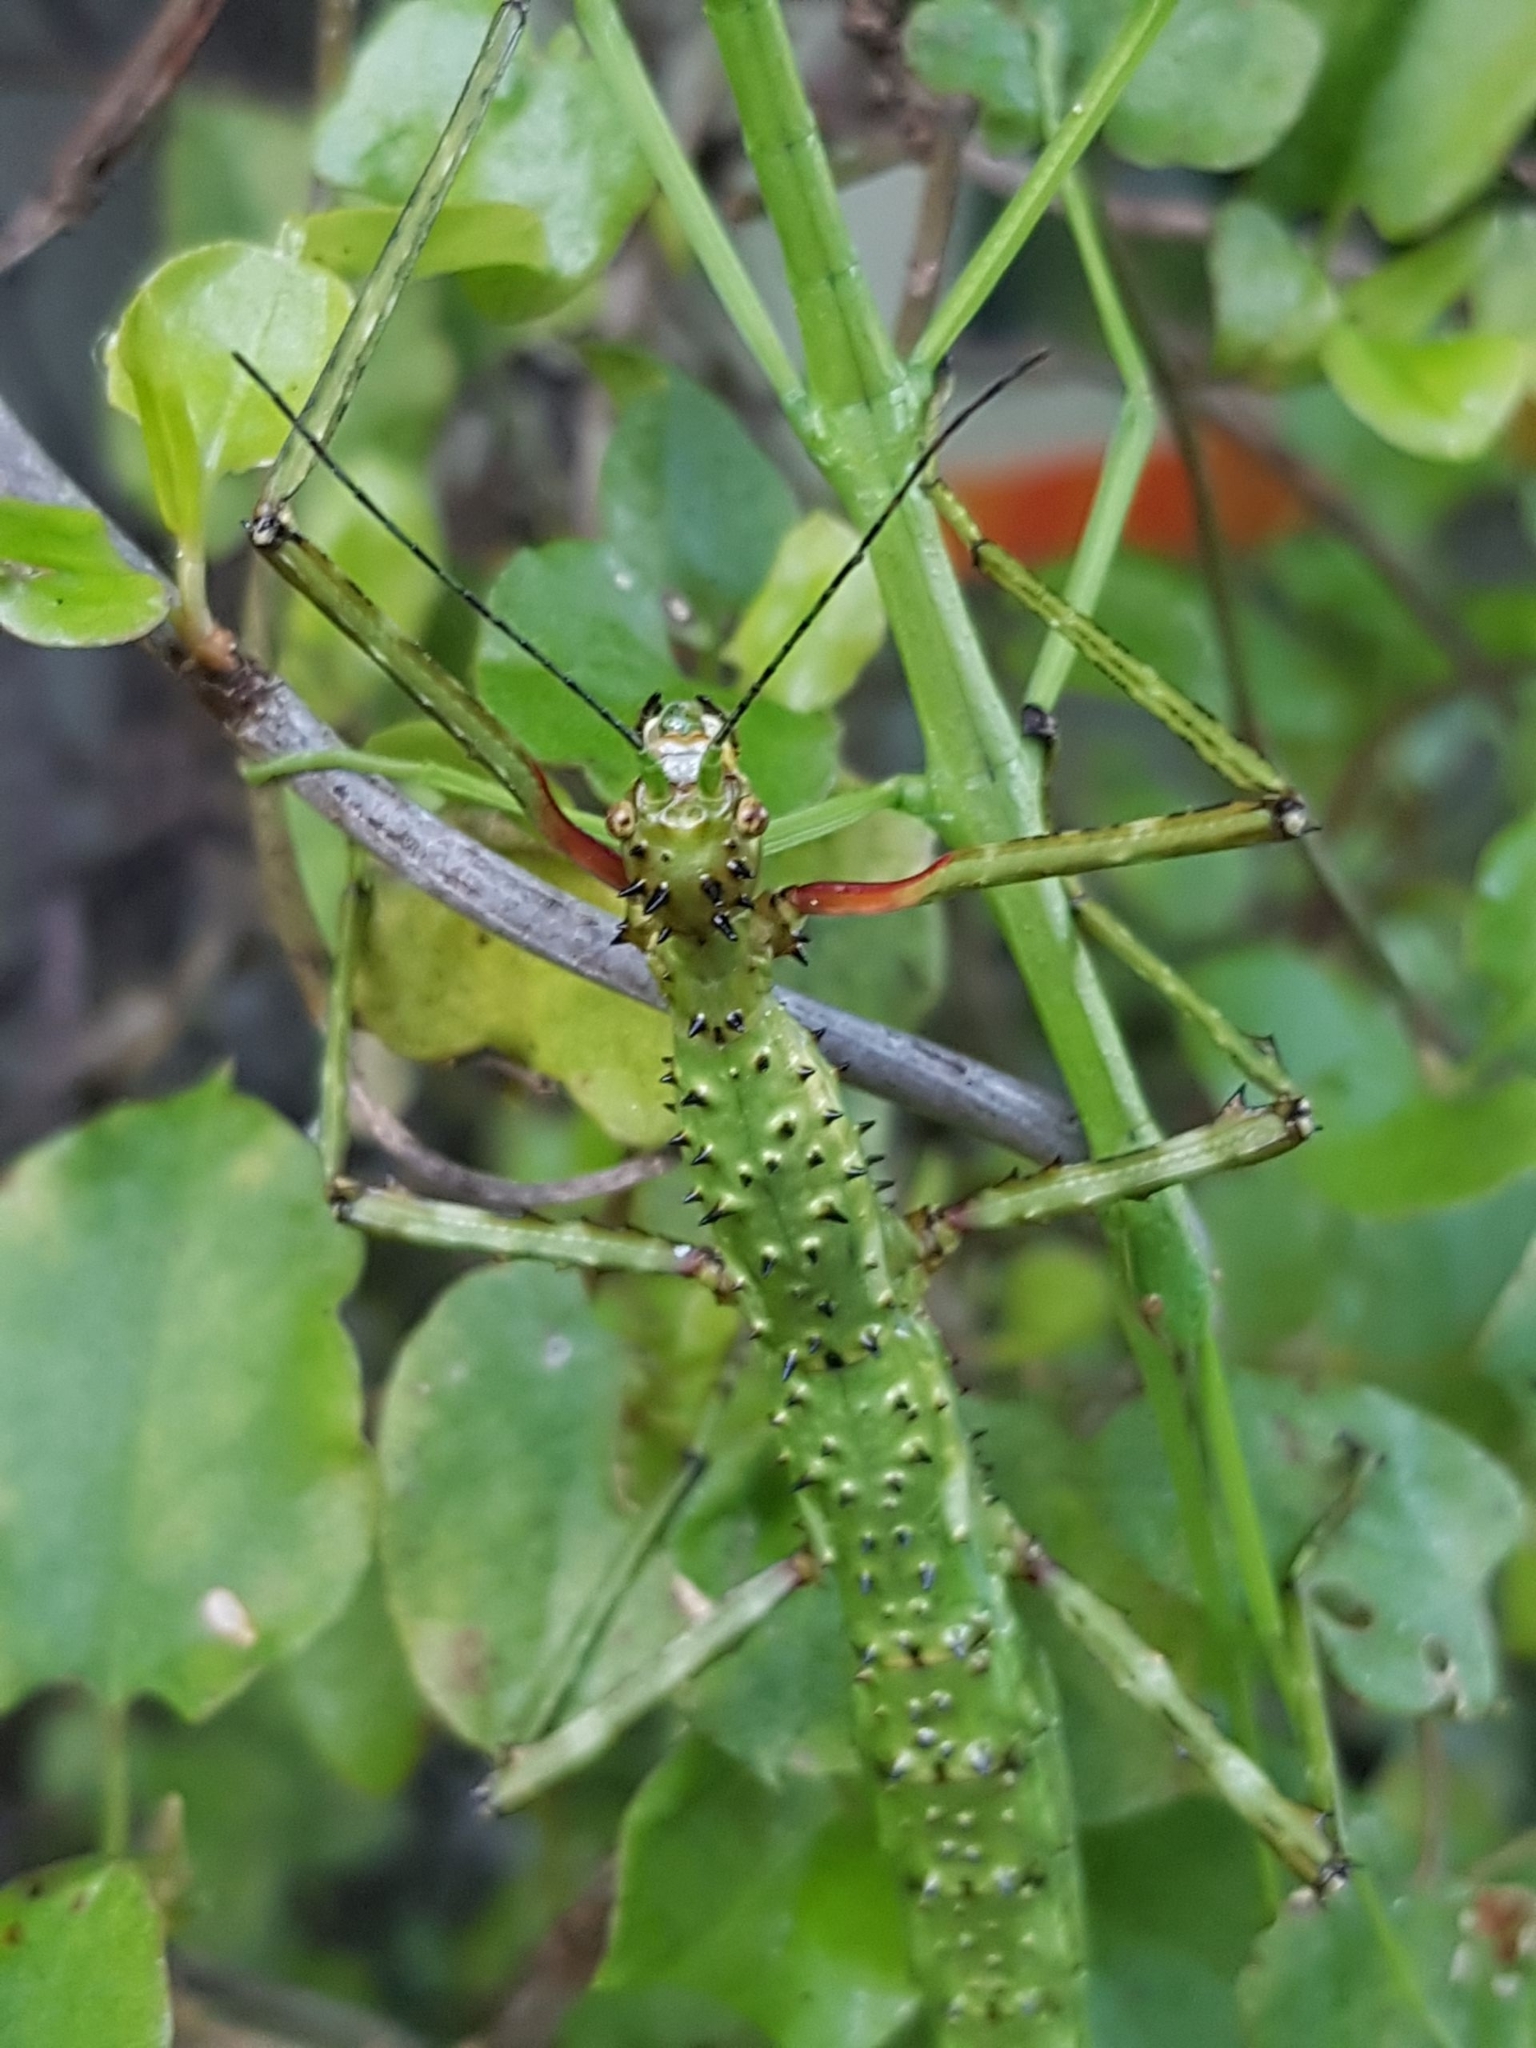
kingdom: Animalia
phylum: Arthropoda
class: Insecta
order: Phasmida
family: Phasmatidae
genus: Acanthoxyla
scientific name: Acanthoxyla prasina
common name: Black-spined stick insect
